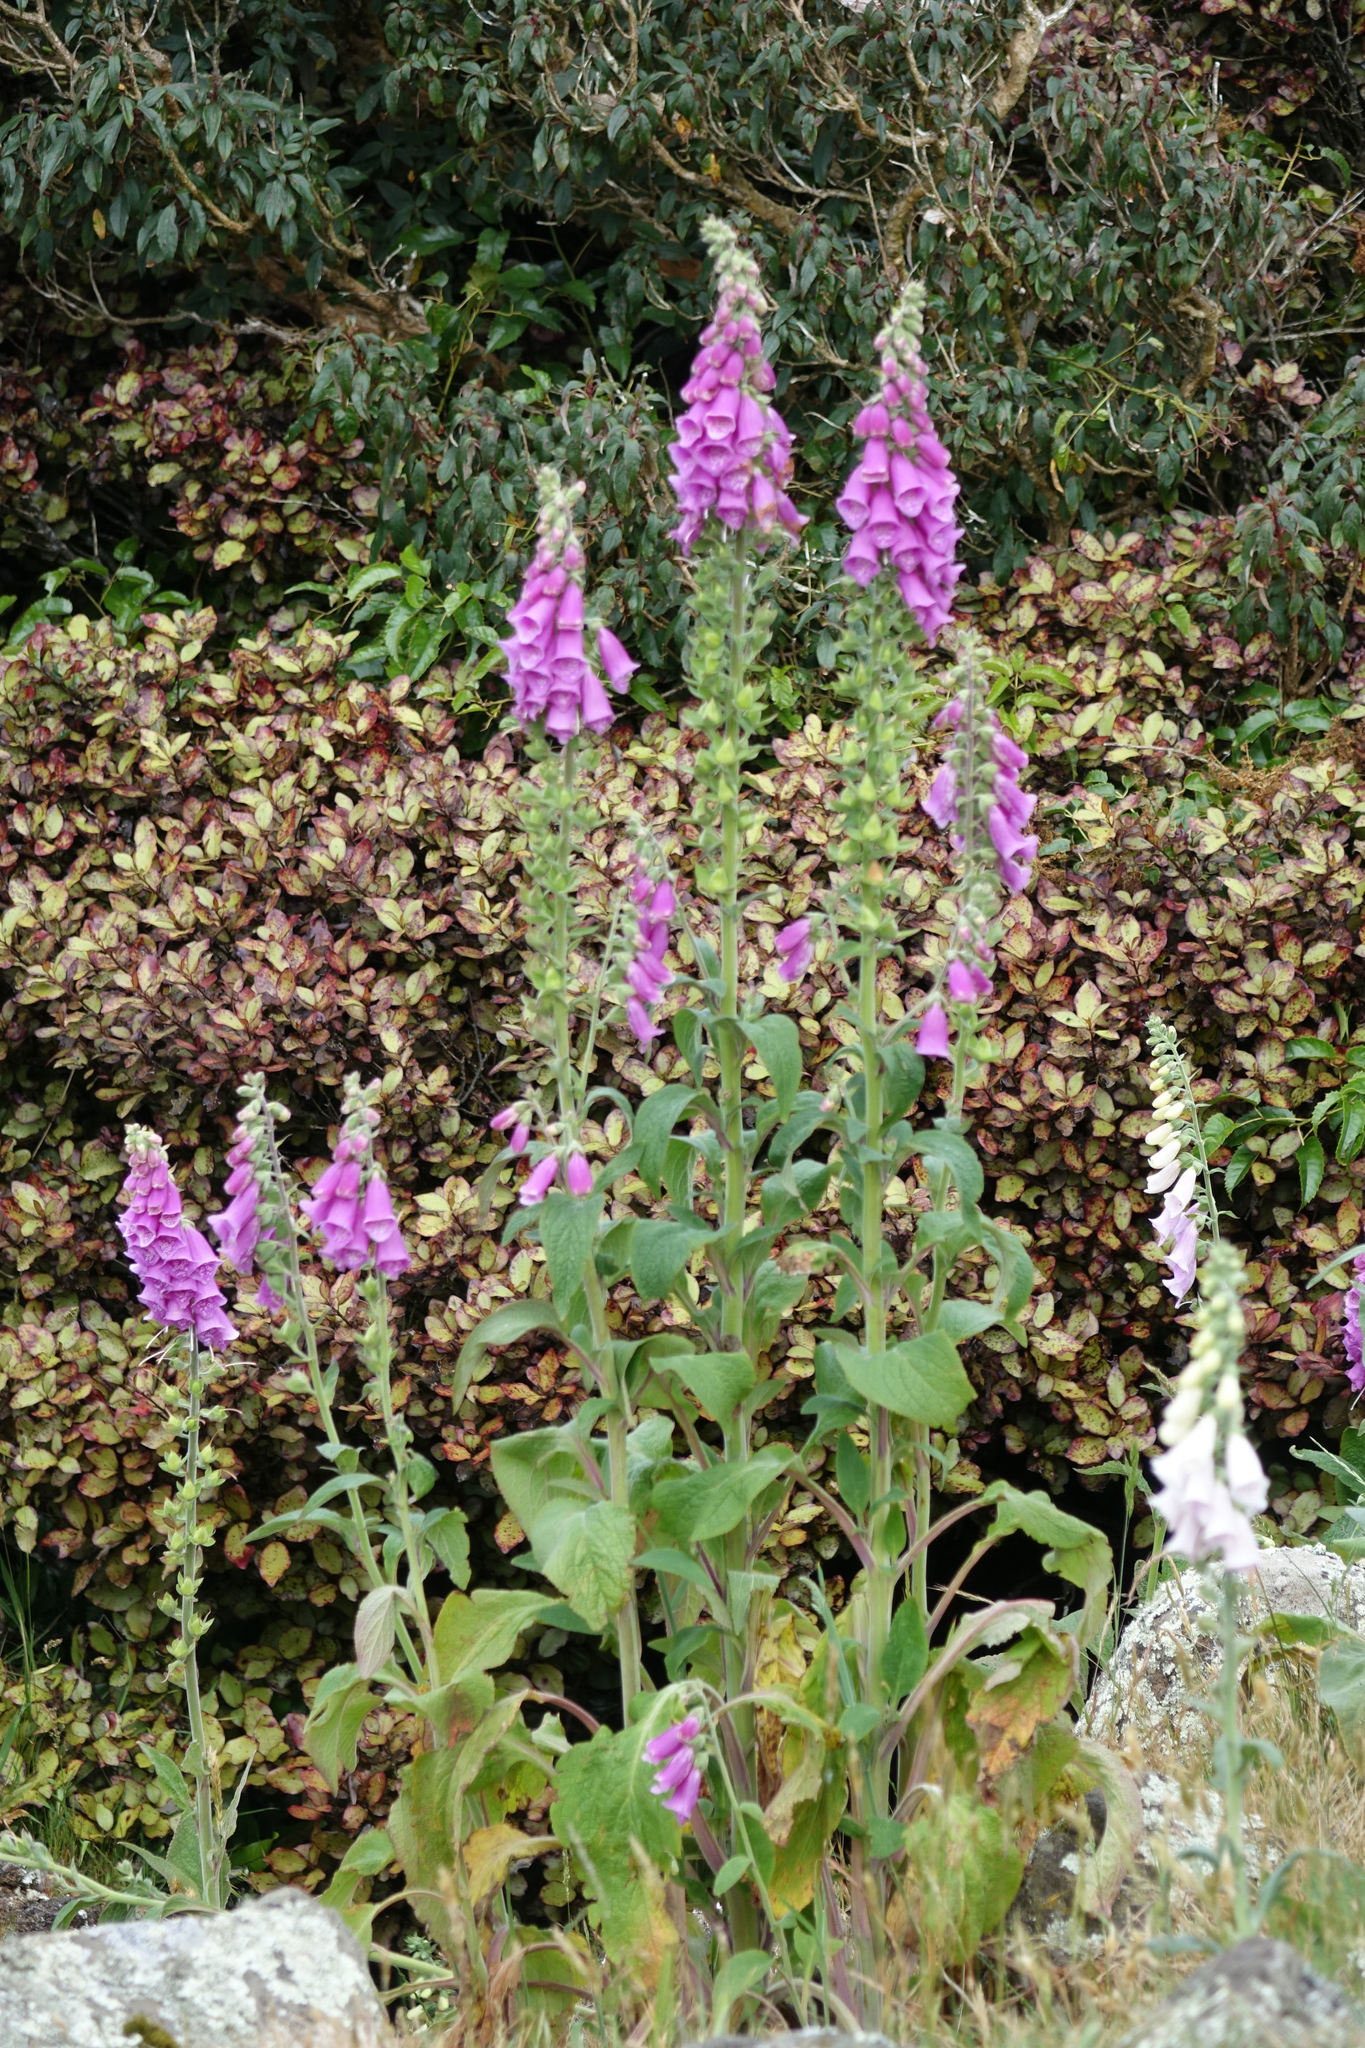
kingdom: Plantae
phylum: Tracheophyta
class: Magnoliopsida
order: Lamiales
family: Plantaginaceae
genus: Digitalis
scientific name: Digitalis purpurea
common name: Foxglove
